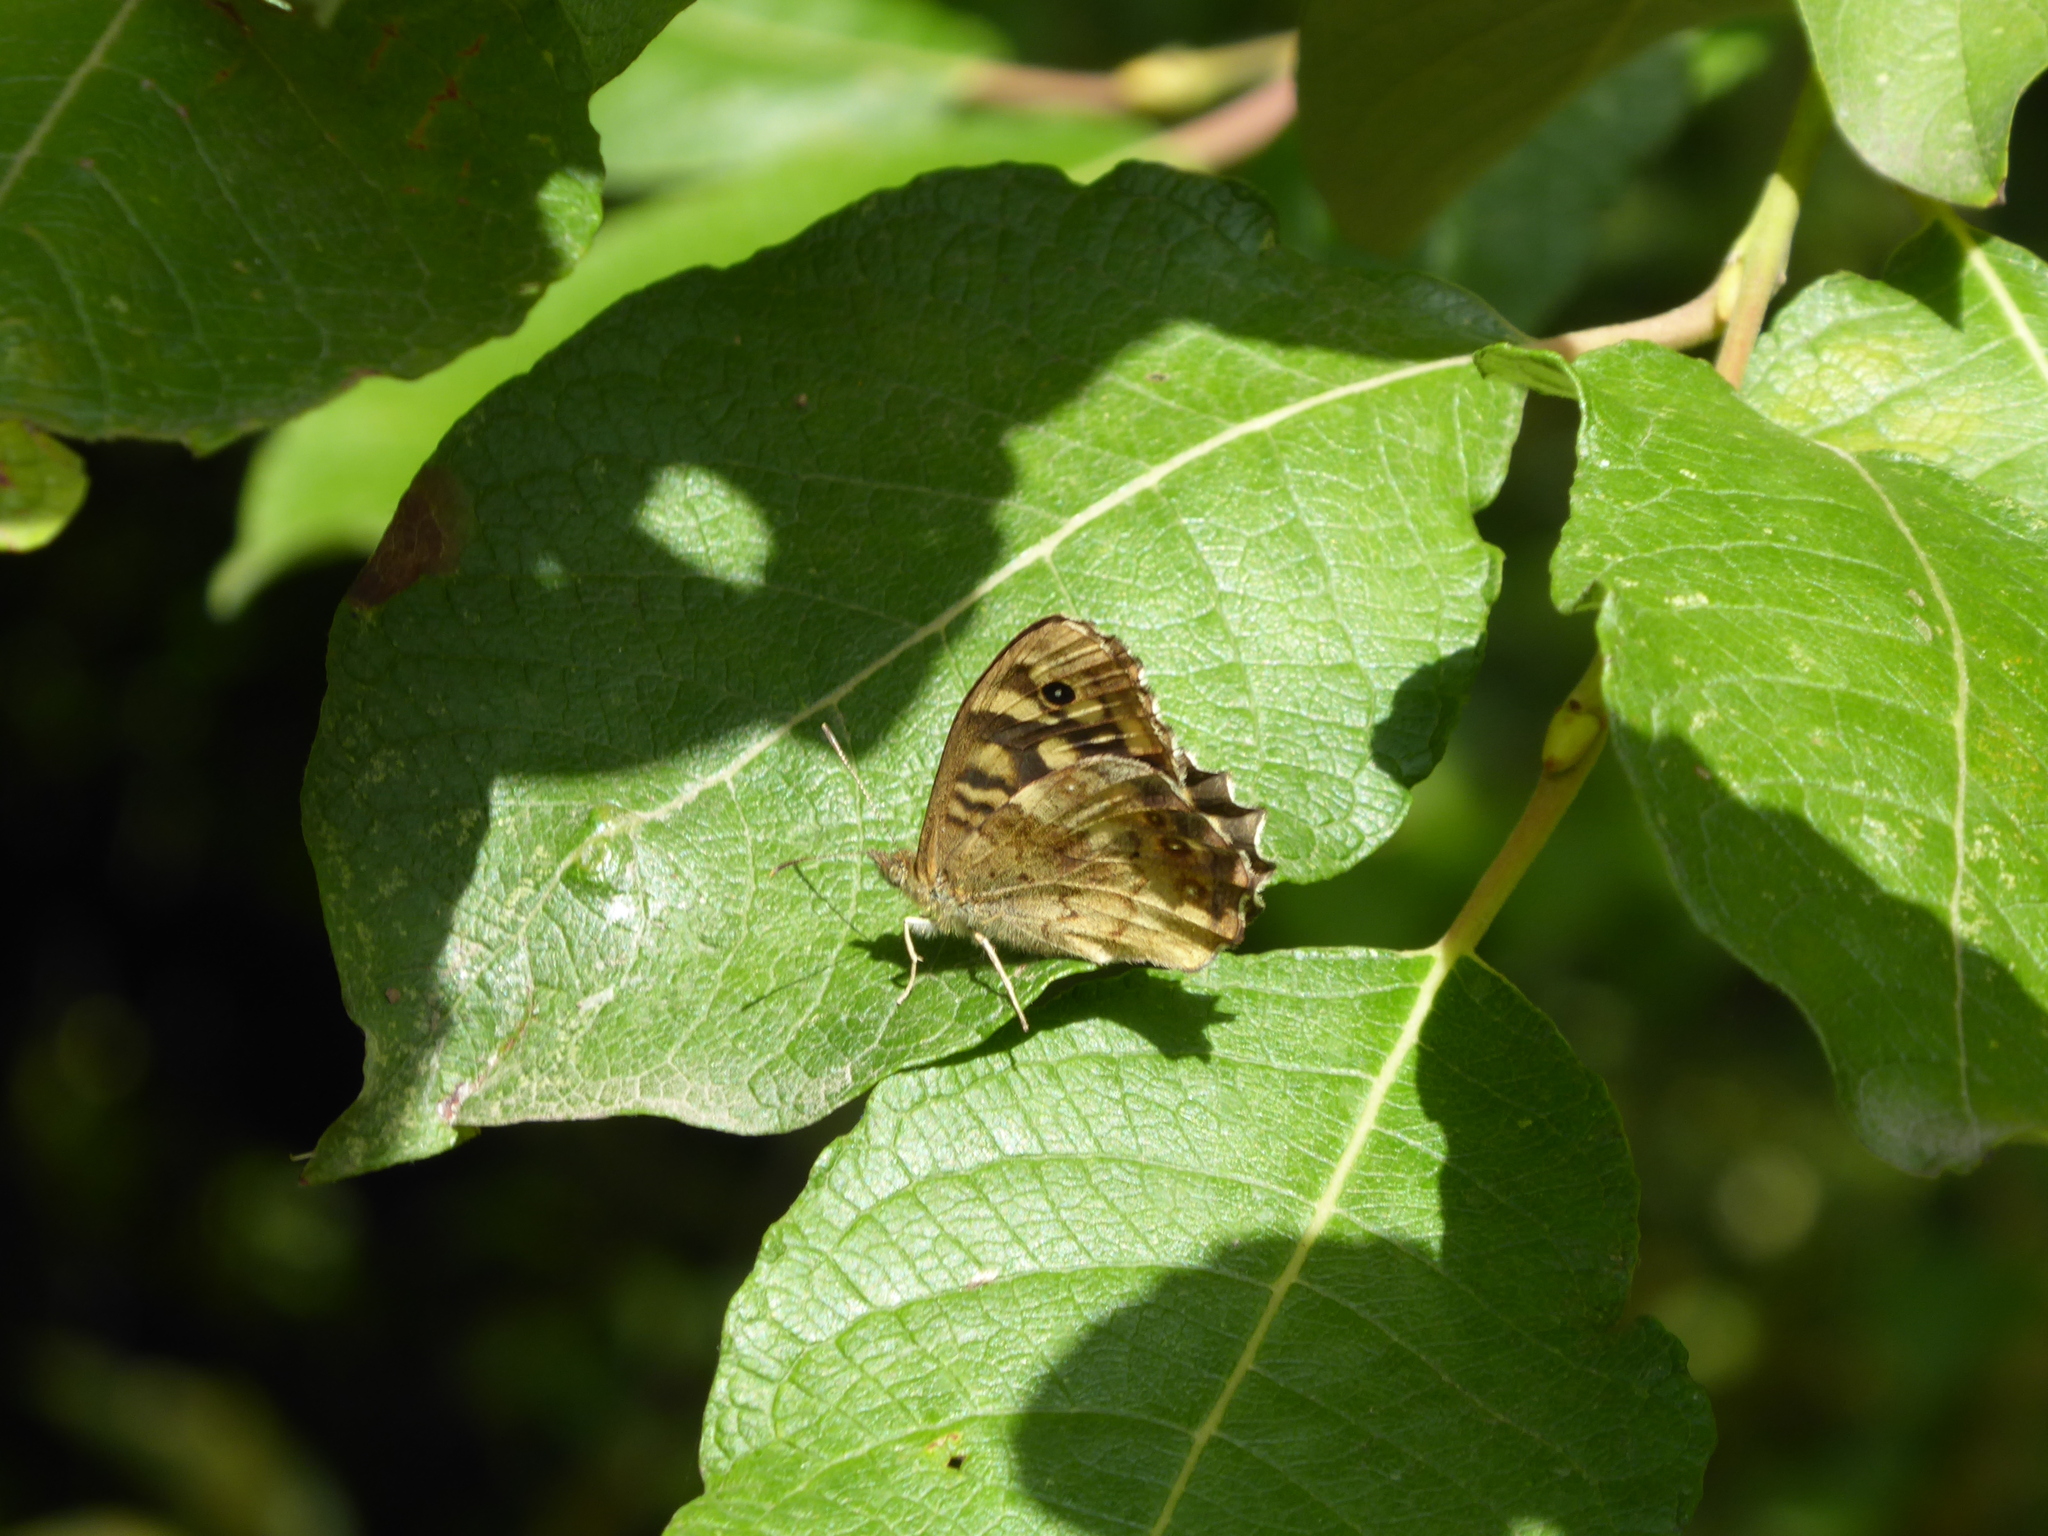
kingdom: Animalia
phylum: Arthropoda
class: Insecta
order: Lepidoptera
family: Nymphalidae
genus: Pararge
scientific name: Pararge aegeria
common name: Speckled wood
